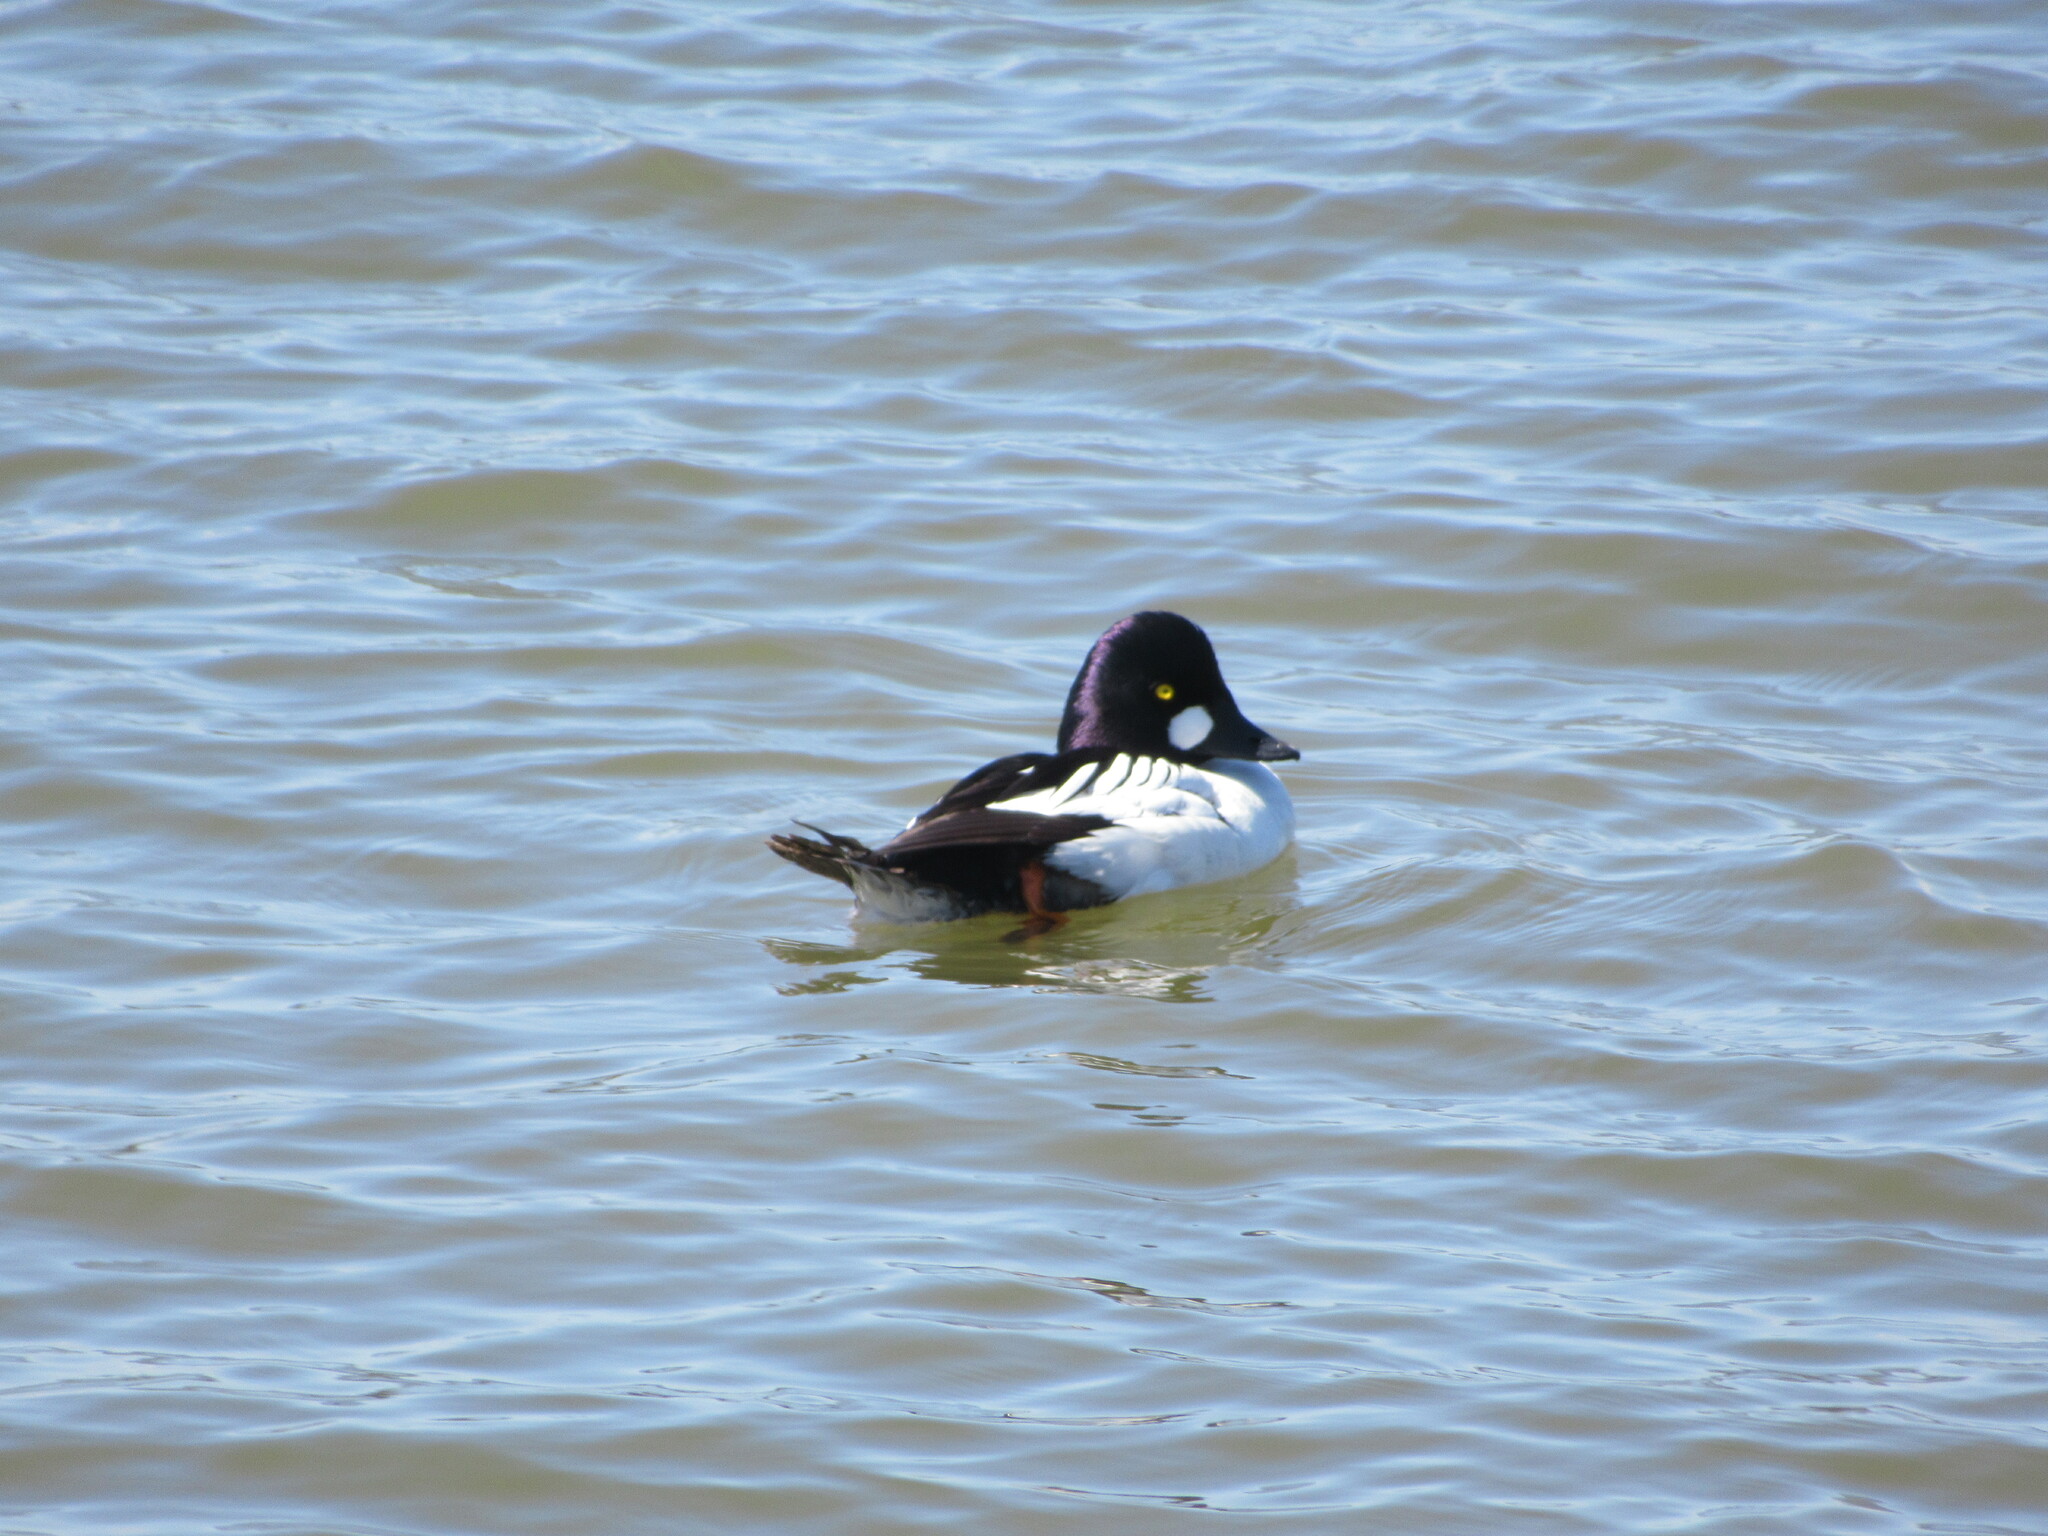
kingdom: Animalia
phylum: Chordata
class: Aves
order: Anseriformes
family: Anatidae
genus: Bucephala
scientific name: Bucephala clangula
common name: Common goldeneye
